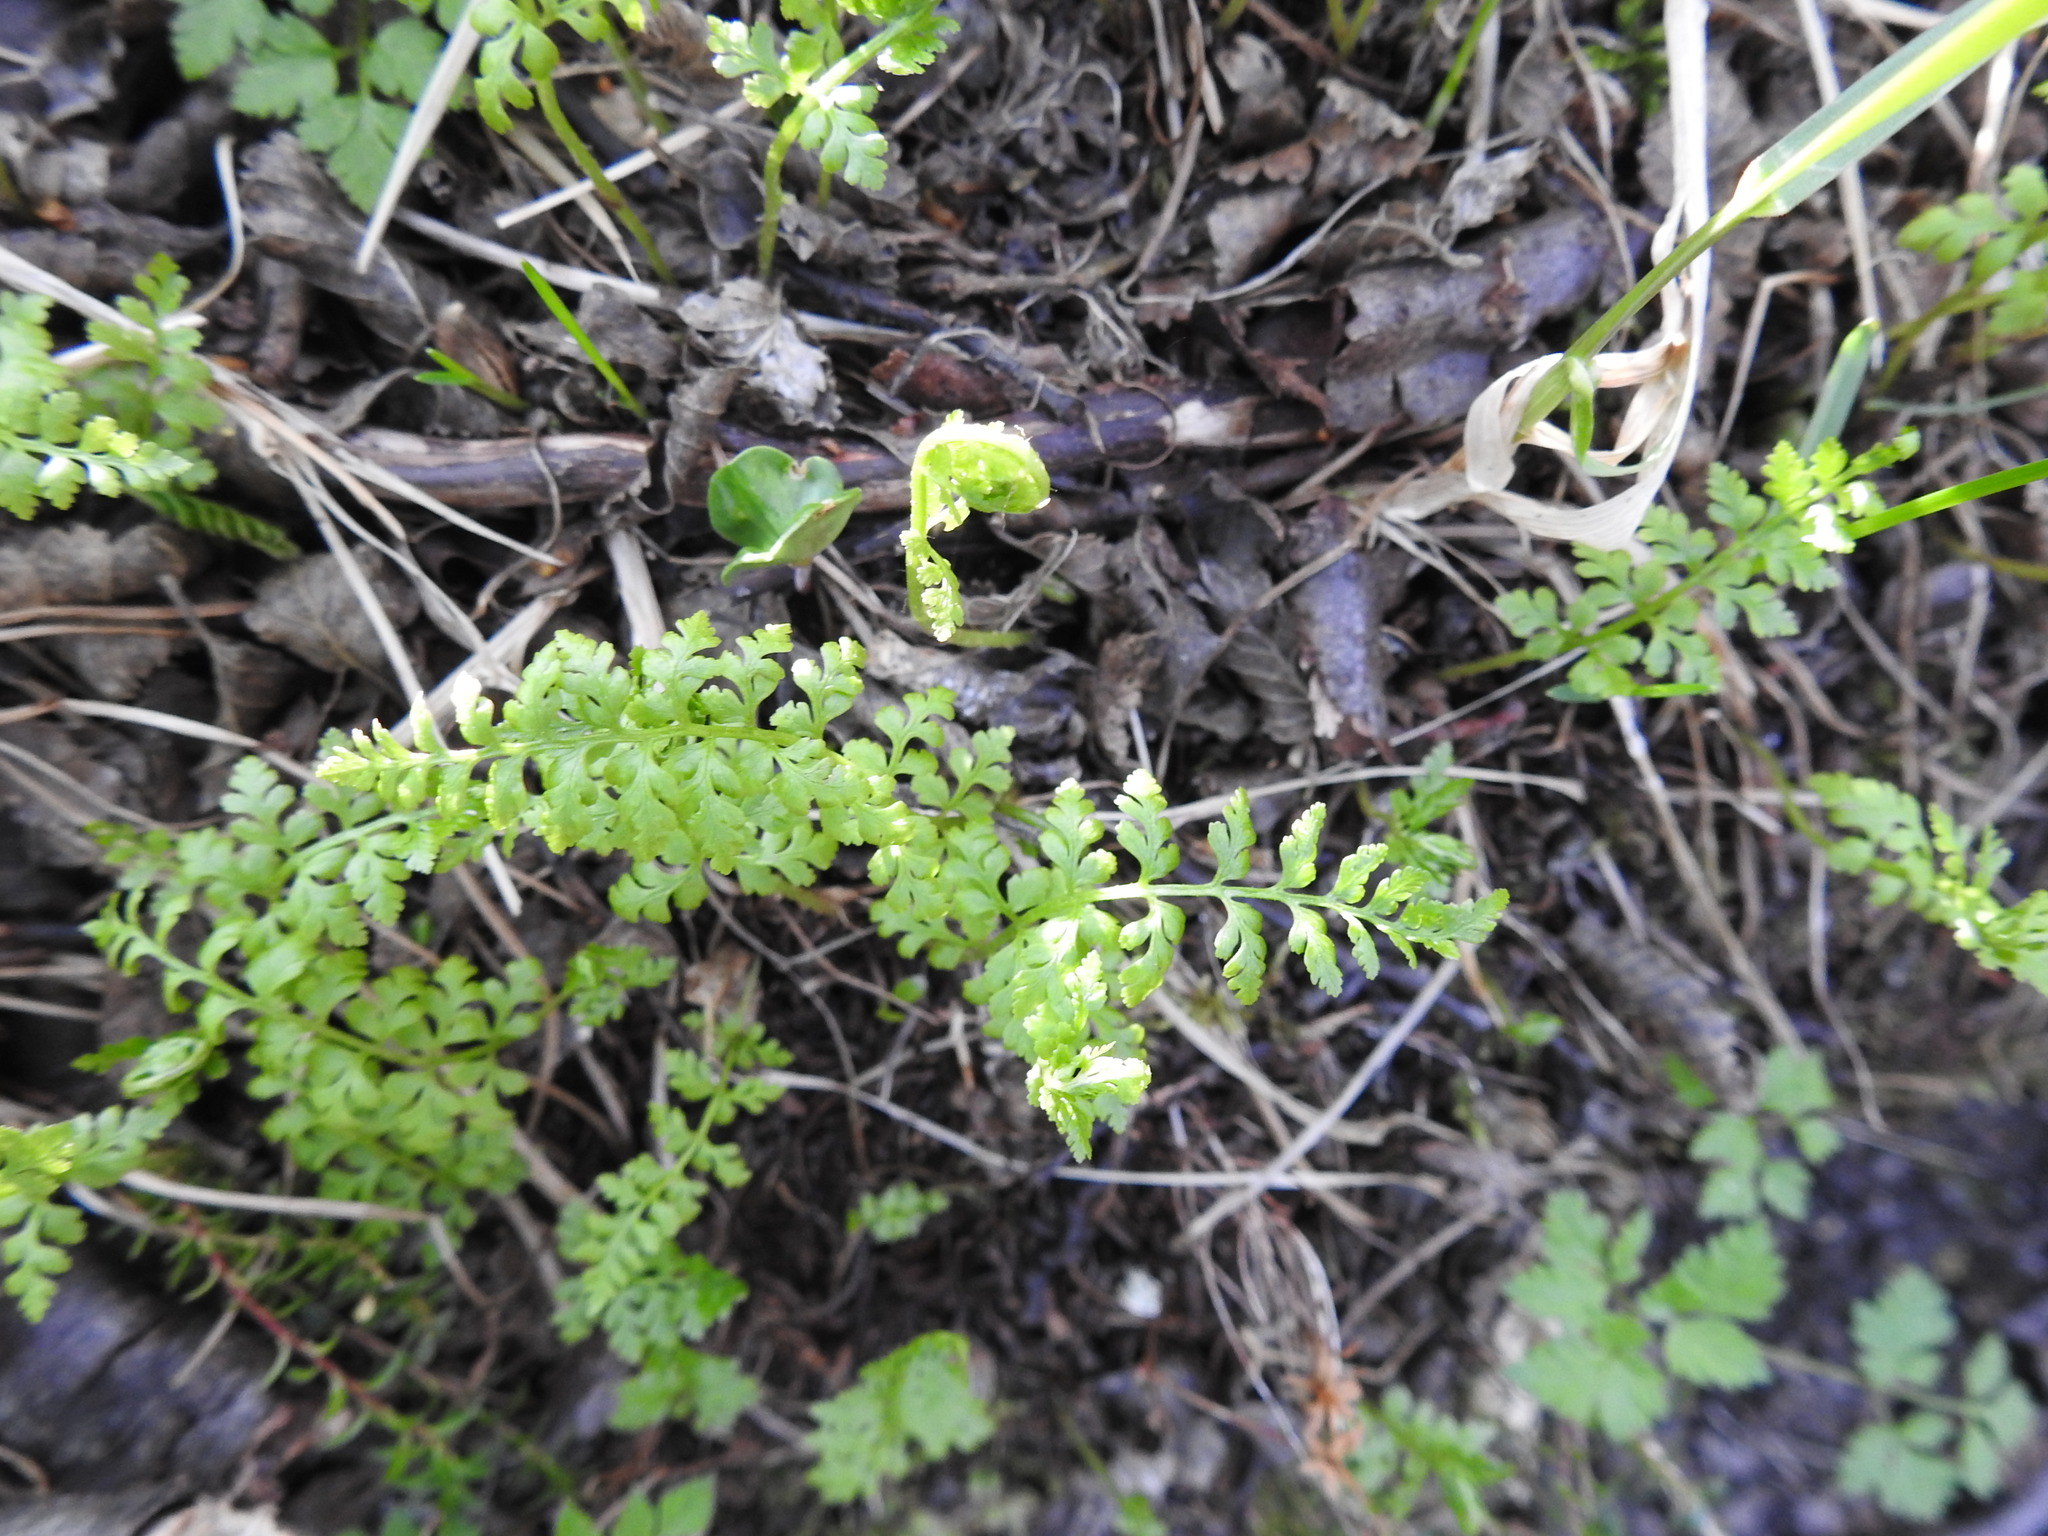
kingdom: Plantae
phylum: Tracheophyta
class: Polypodiopsida
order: Polypodiales
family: Cystopteridaceae
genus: Cystopteris
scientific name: Cystopteris fragilis
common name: Brittle bladder fern
